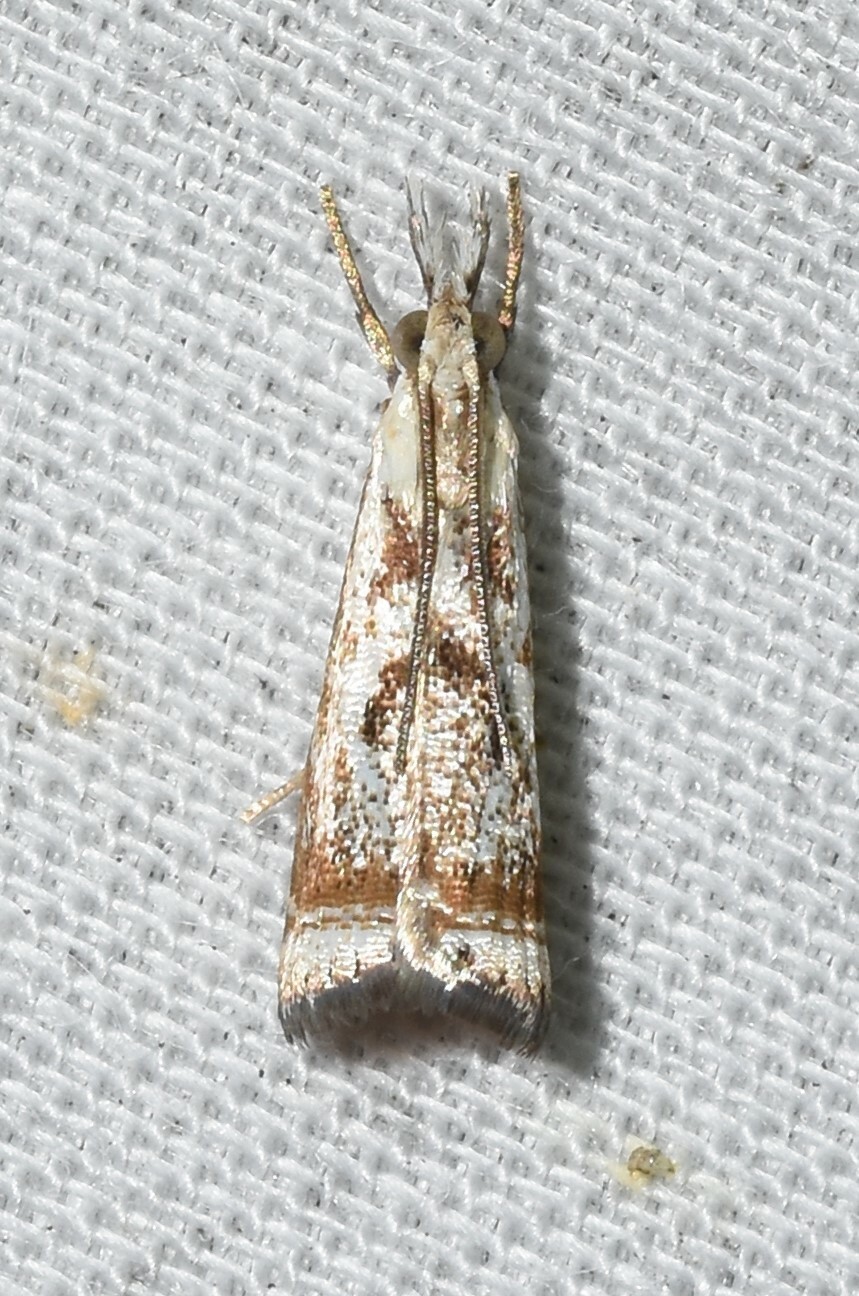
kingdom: Animalia
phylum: Arthropoda
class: Insecta
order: Lepidoptera
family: Crambidae
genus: Microcrambus
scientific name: Microcrambus elegans
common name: Elegant grass-veneer
